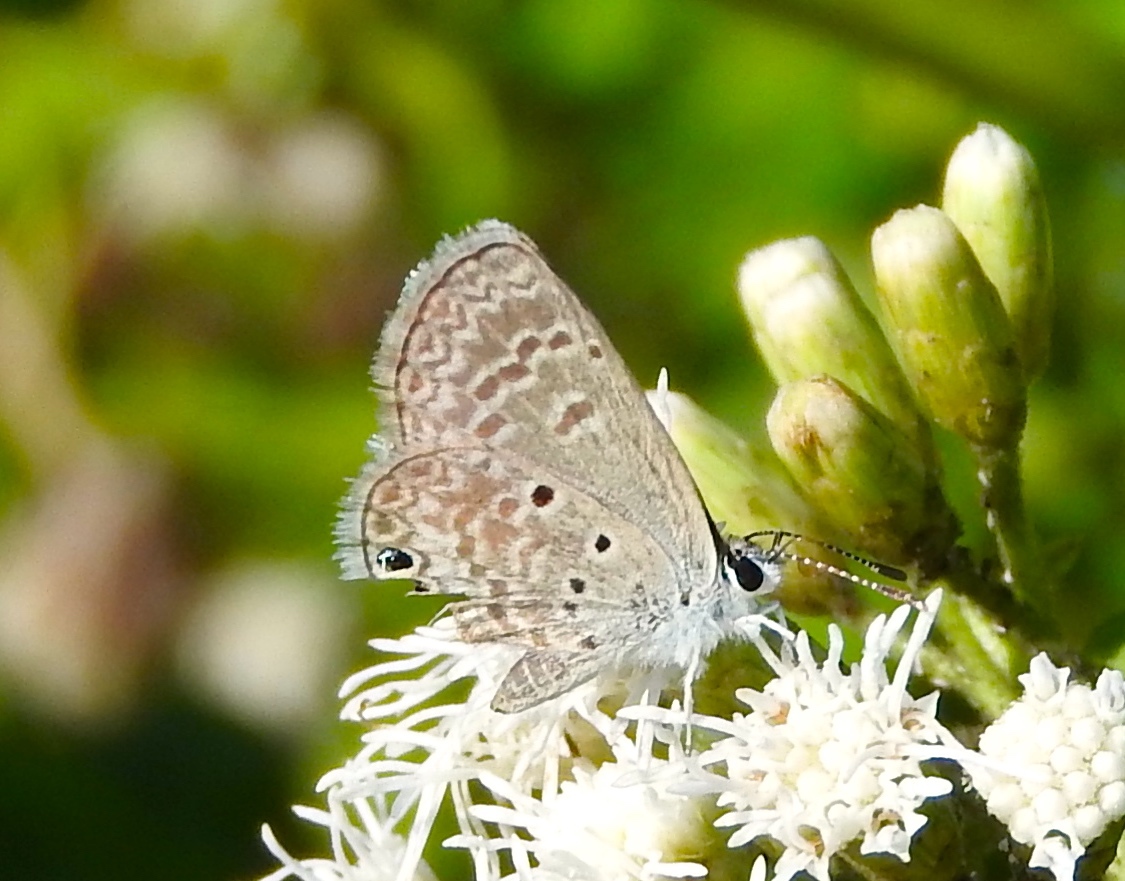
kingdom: Animalia
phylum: Arthropoda
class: Insecta
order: Lepidoptera
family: Lycaenidae
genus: Hemiargus
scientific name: Hemiargus ceraunus
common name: Ceraunus blue
